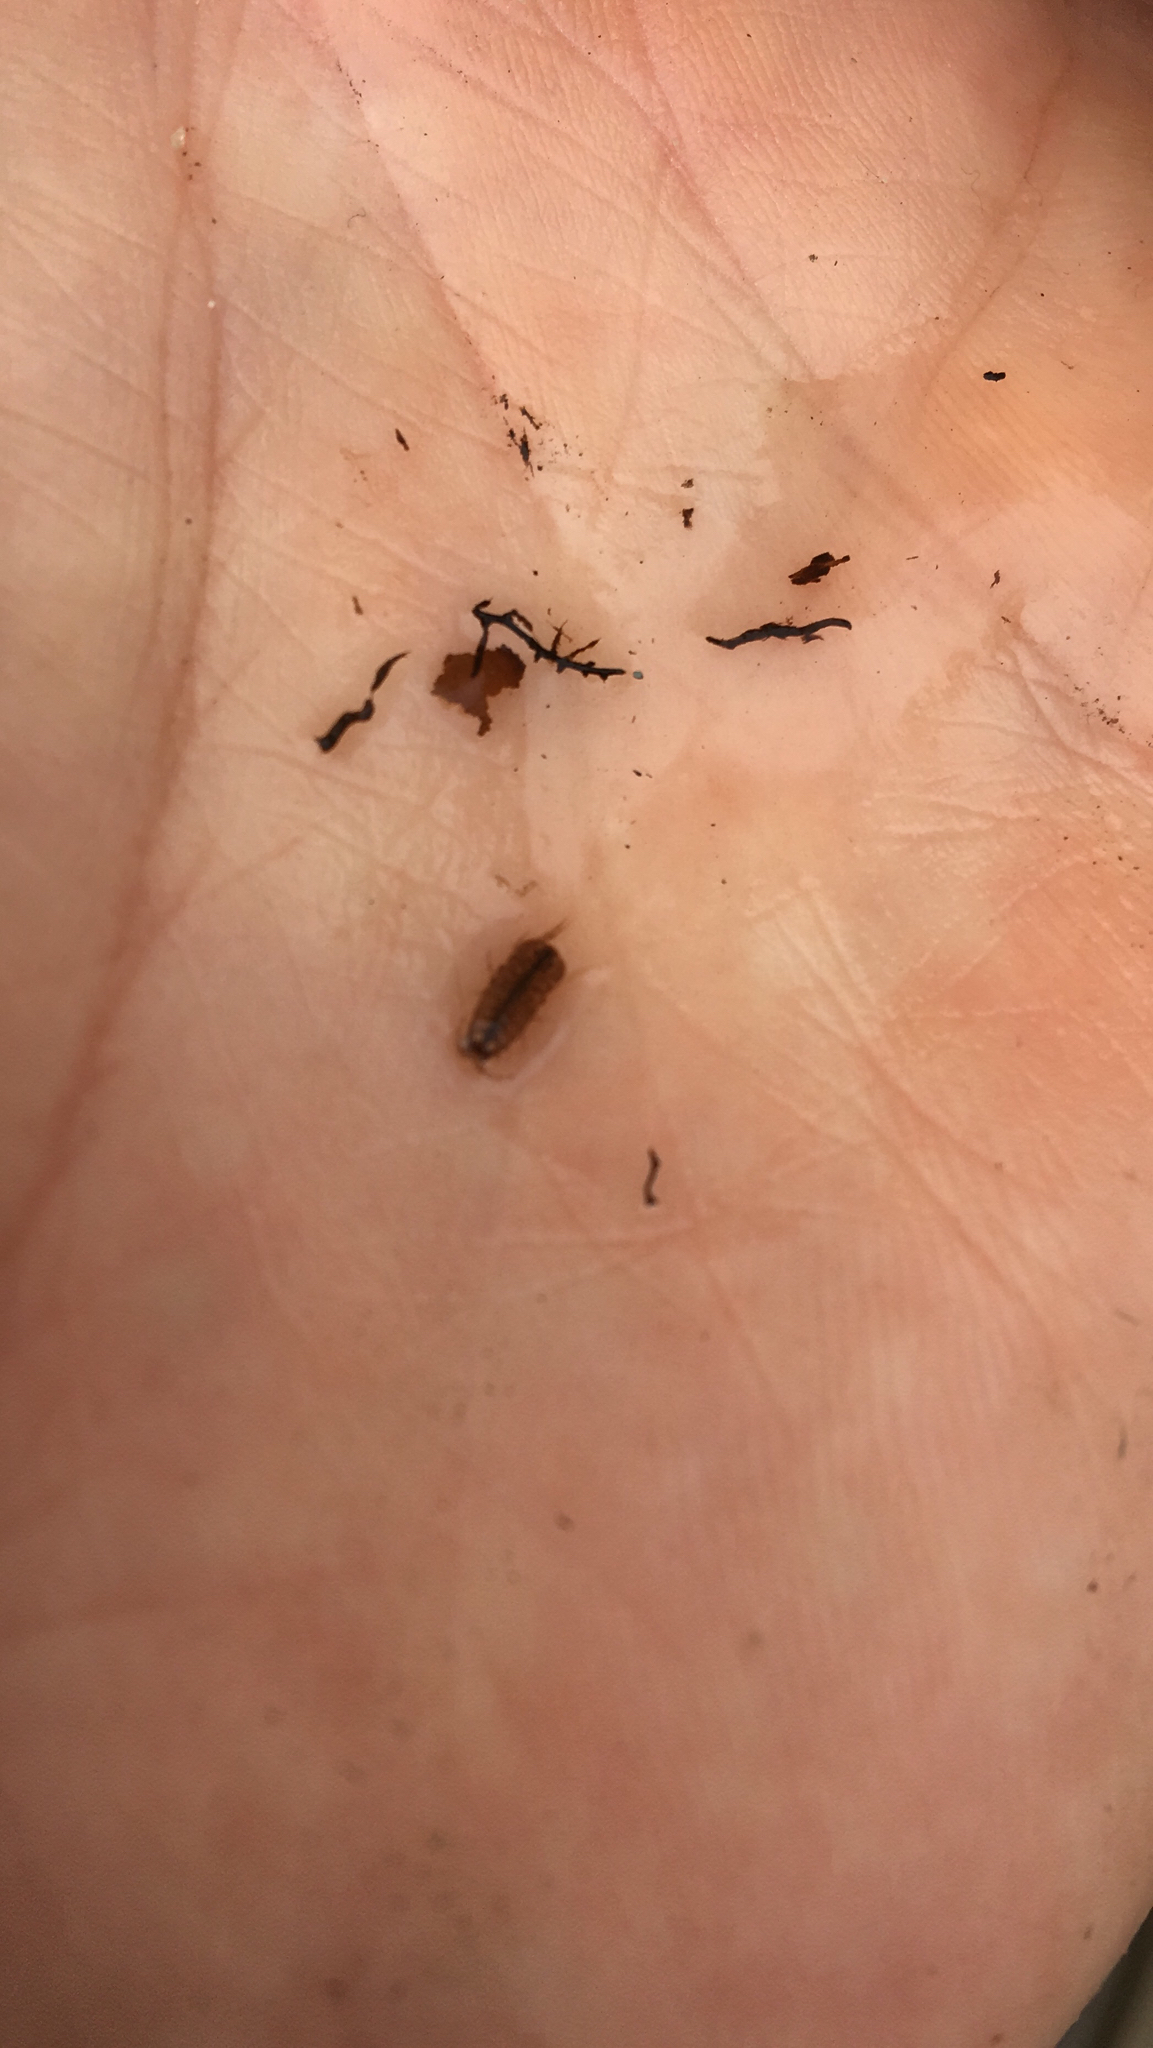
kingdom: Animalia
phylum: Arthropoda
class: Malacostraca
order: Isopoda
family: Asellidae
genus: Asellus
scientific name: Asellus aquaticus
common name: Water hog lice/slaters
